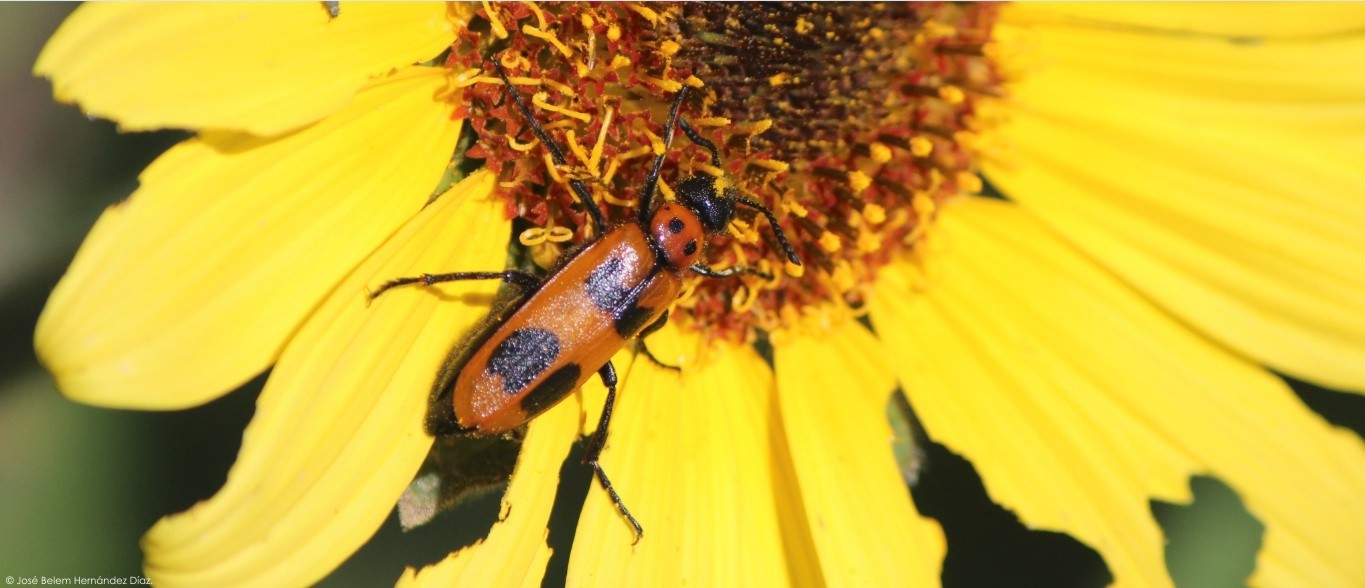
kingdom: Animalia
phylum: Arthropoda
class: Insecta
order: Coleoptera
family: Meloidae
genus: Lytta
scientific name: Lytta quadrimaculata
